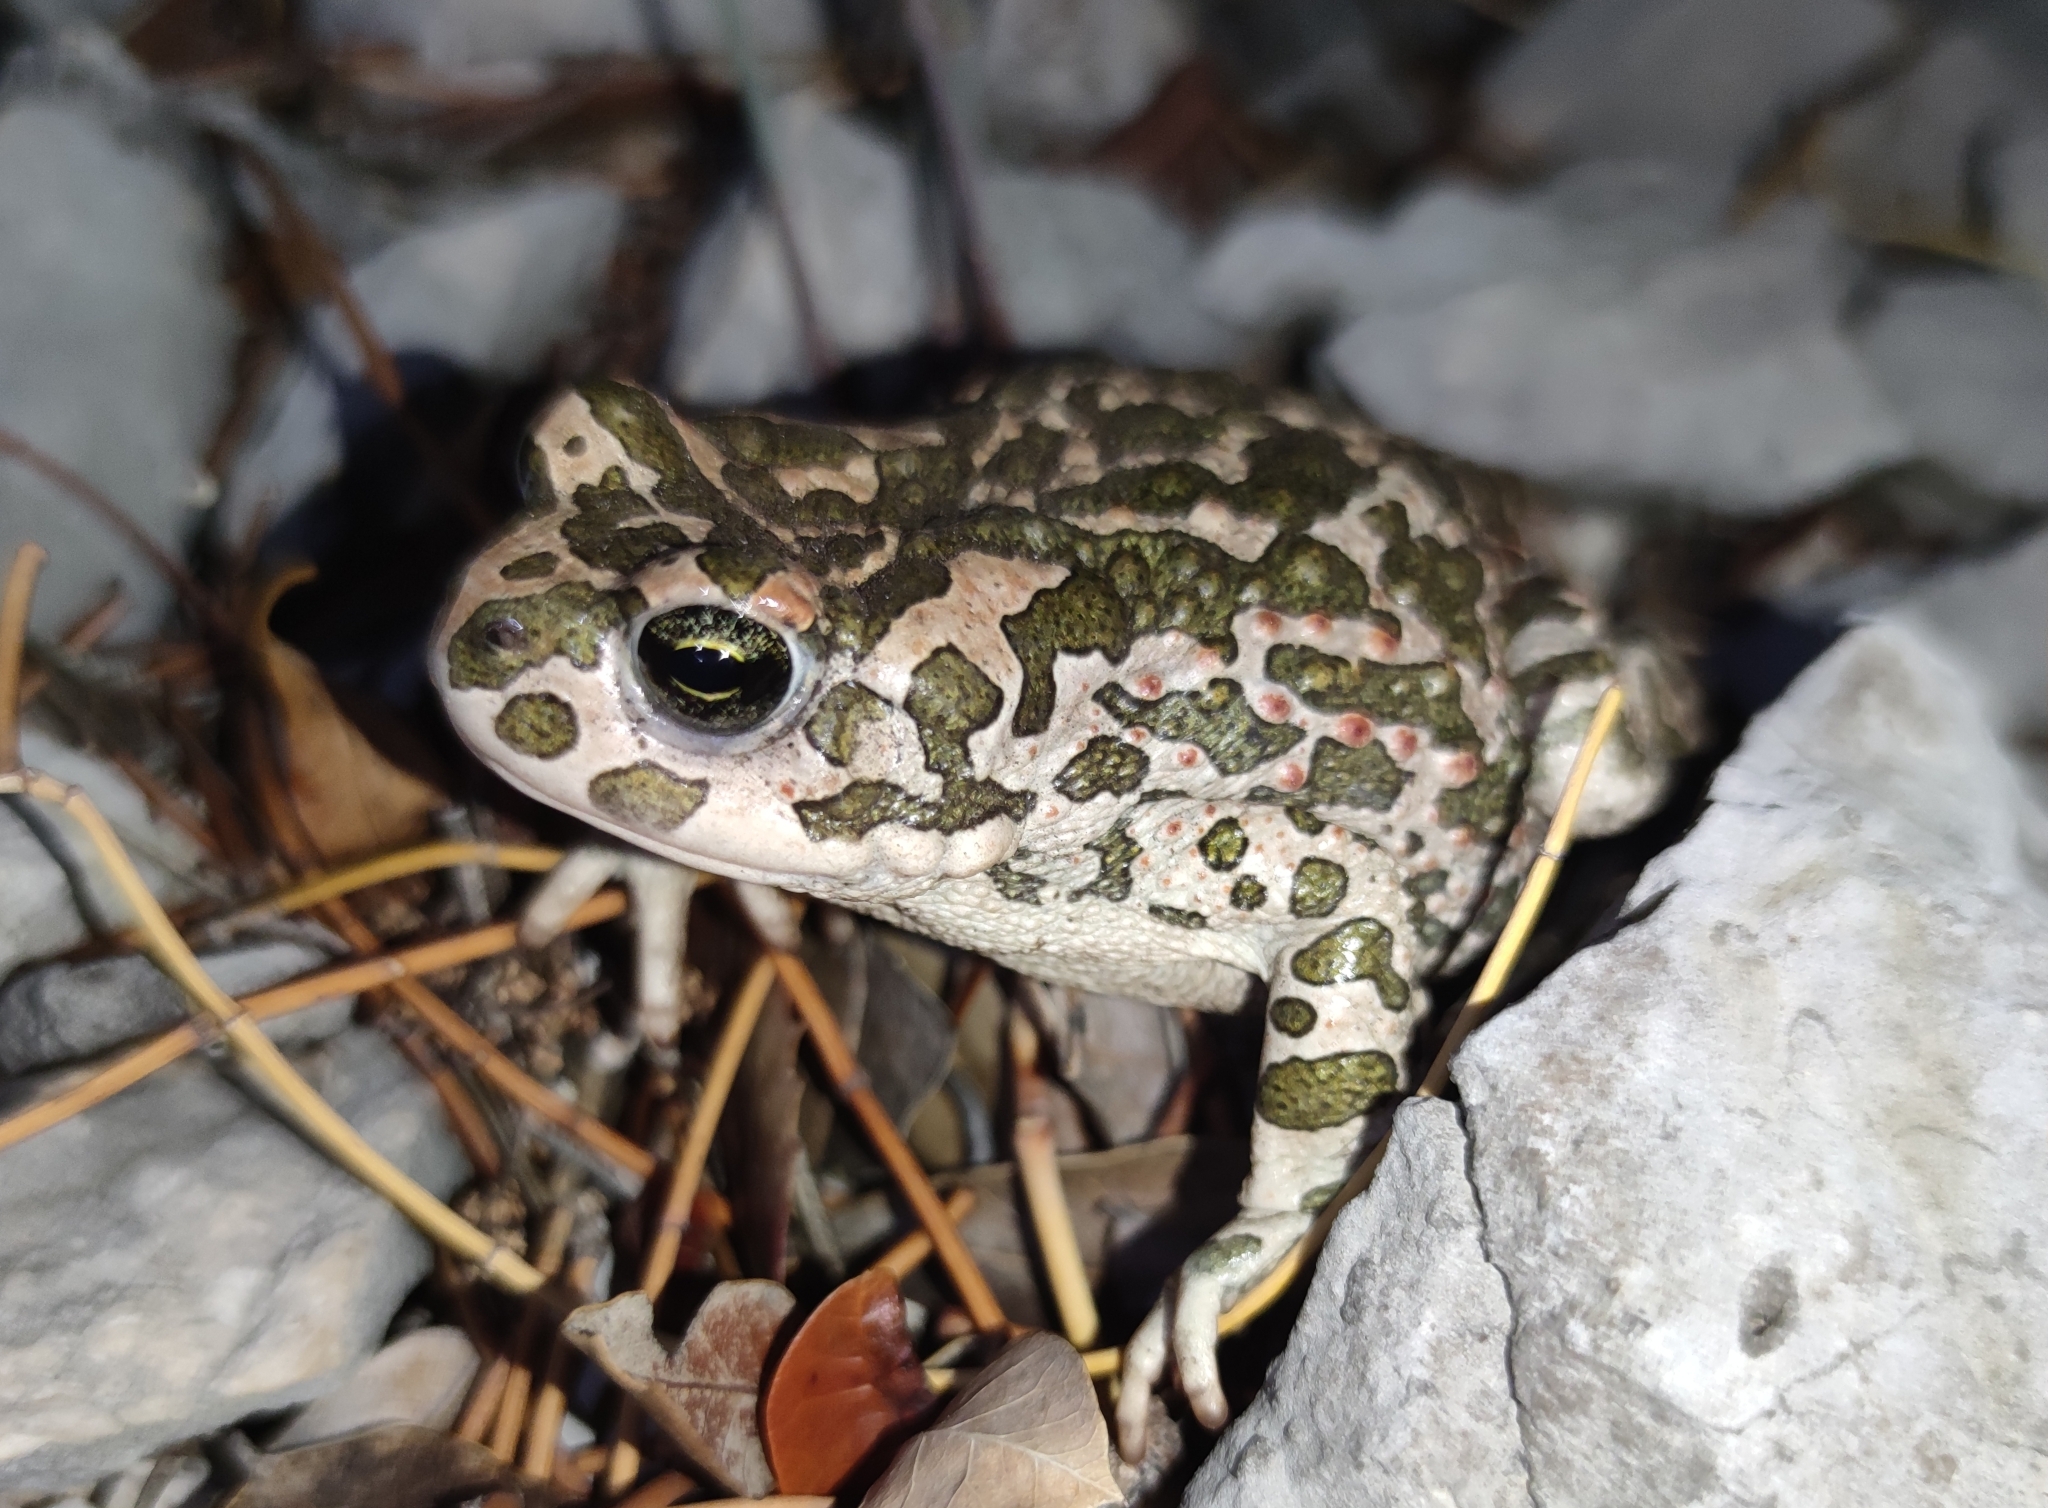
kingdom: Animalia
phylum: Chordata
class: Amphibia
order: Anura
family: Bufonidae
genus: Bufotes
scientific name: Bufotes viridis
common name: European green toad
